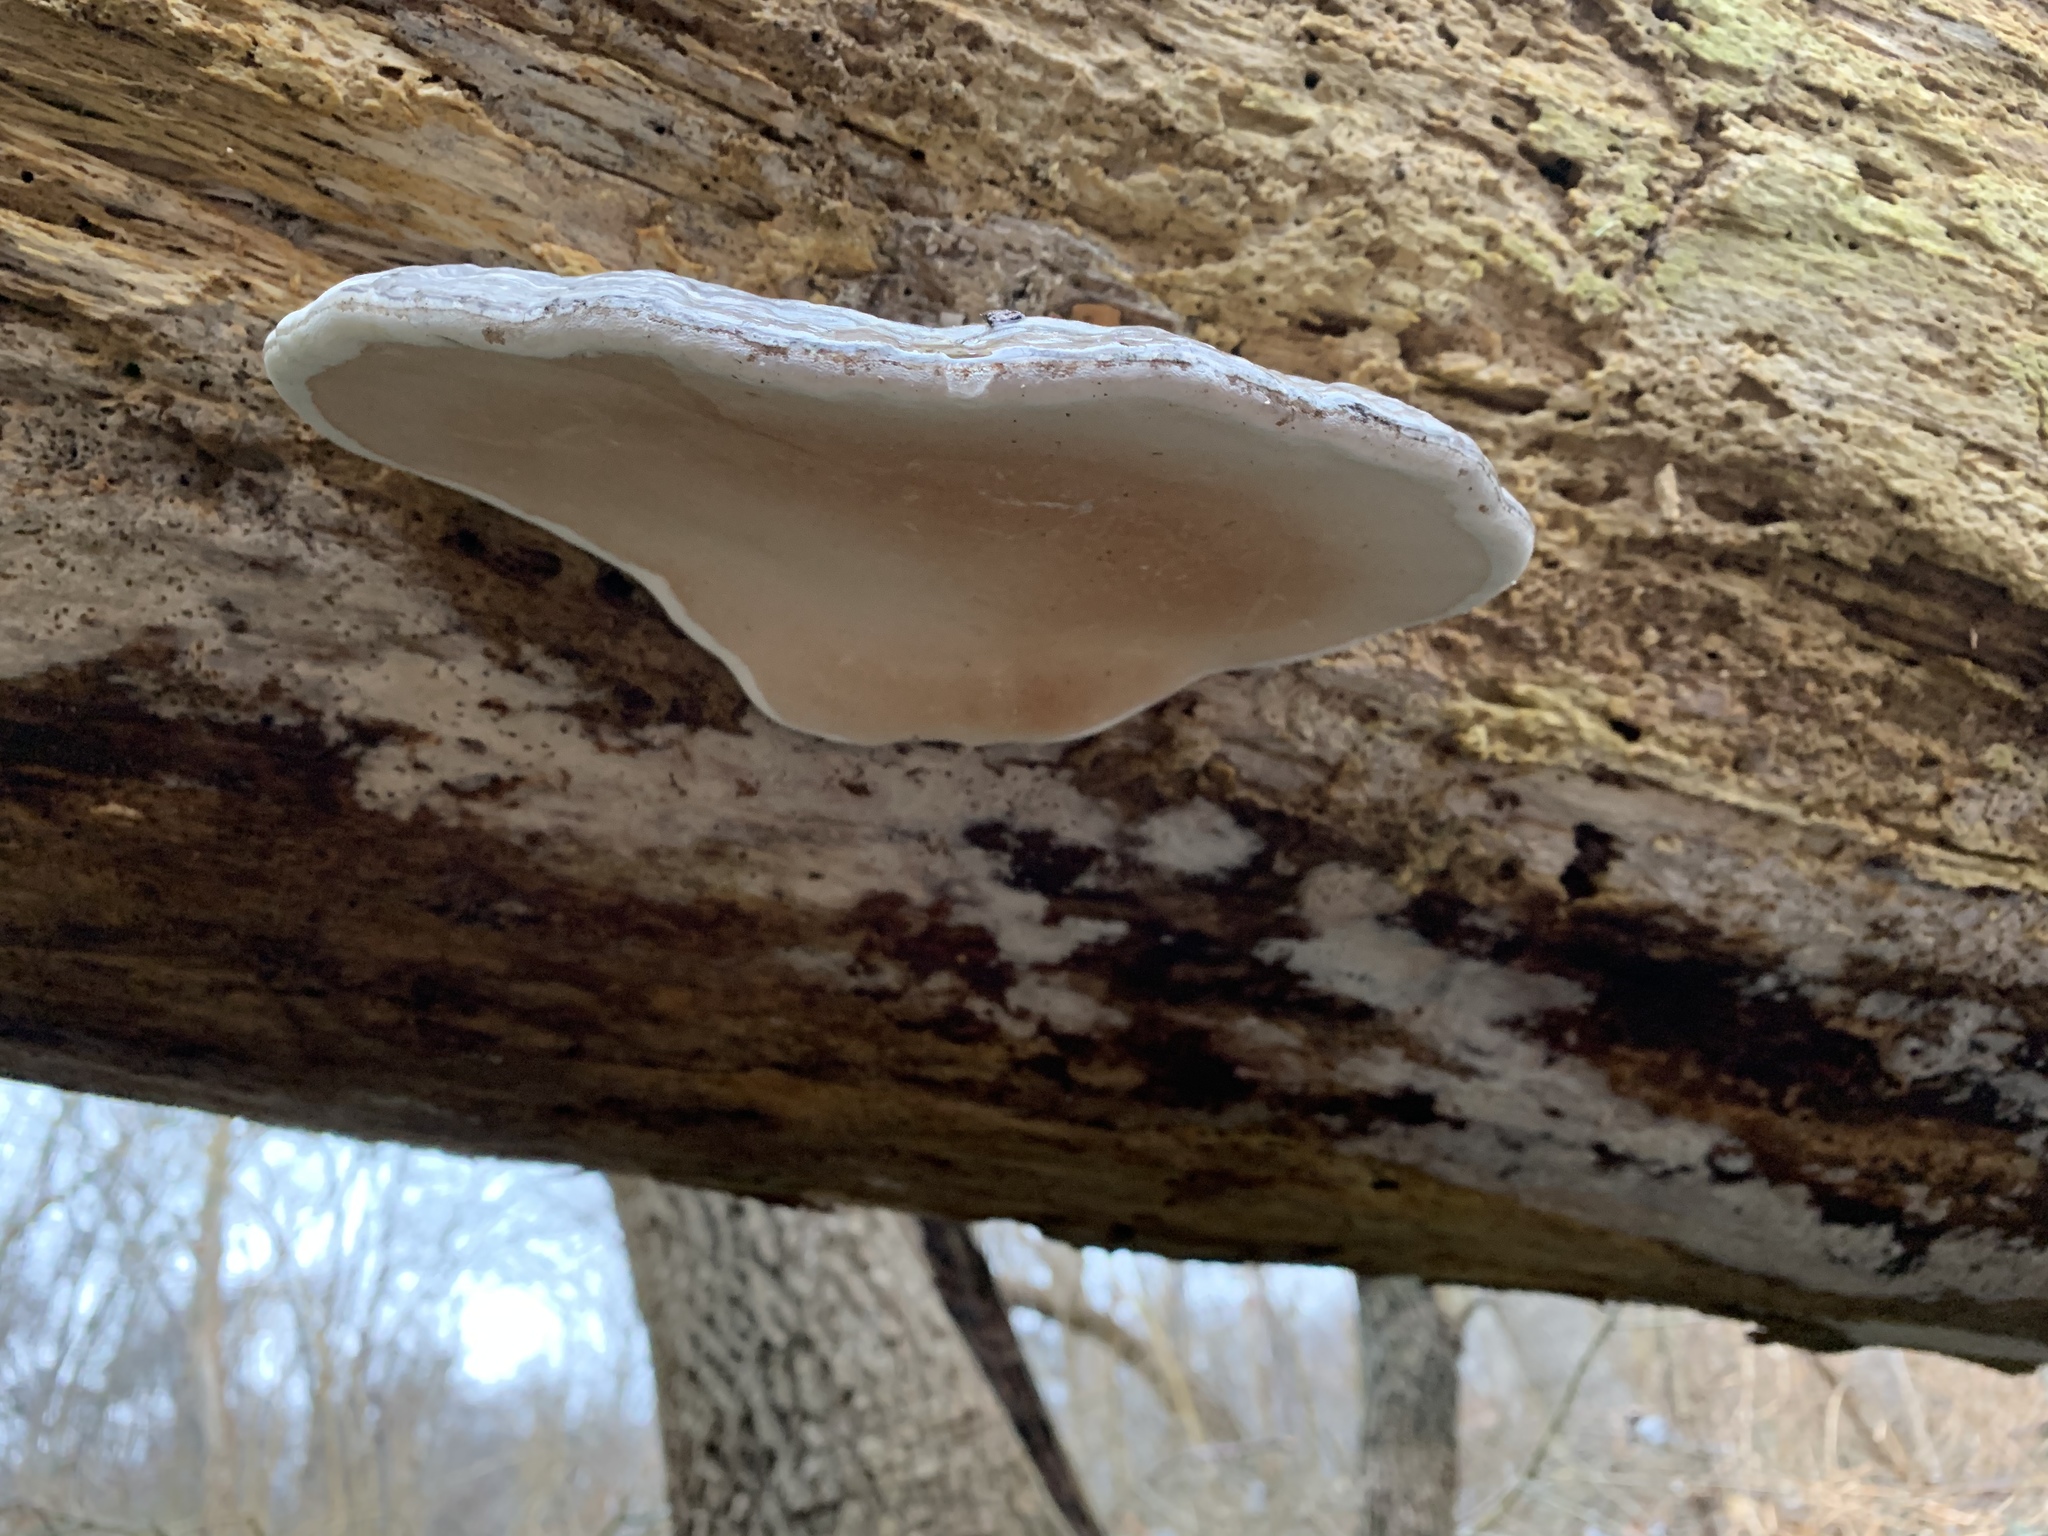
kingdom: Fungi
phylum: Basidiomycota
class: Agaricomycetes
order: Polyporales
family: Polyporaceae
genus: Ganoderma
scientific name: Ganoderma applanatum
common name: Artist's bracket
